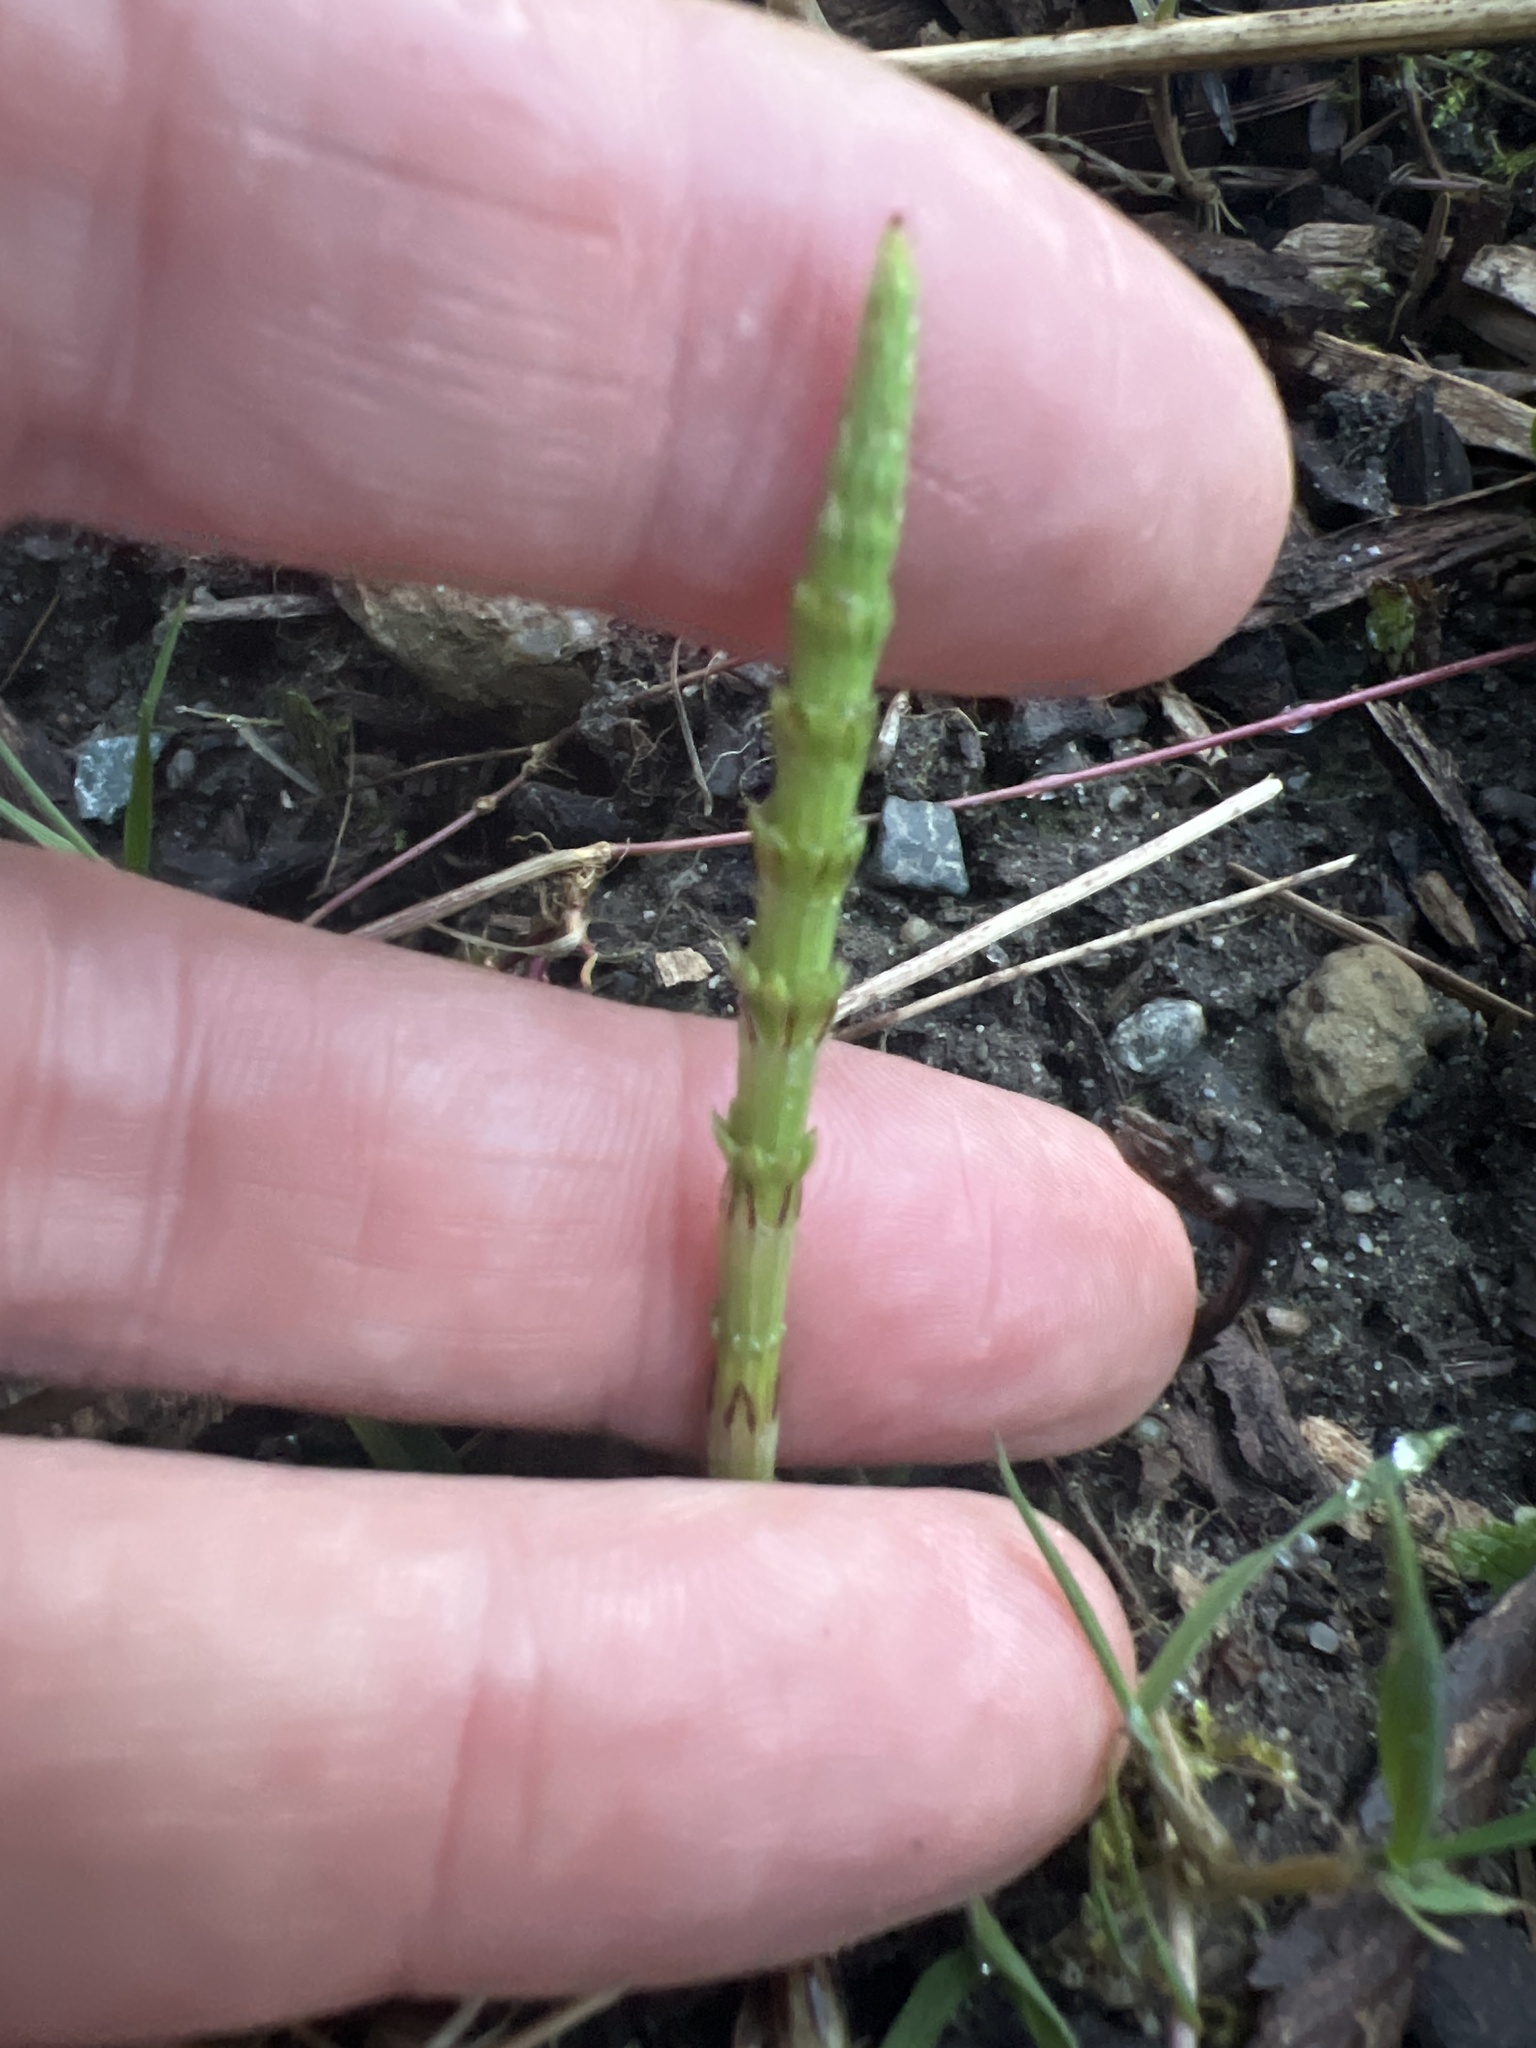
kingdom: Plantae
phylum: Tracheophyta
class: Polypodiopsida
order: Equisetales
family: Equisetaceae
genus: Equisetum
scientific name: Equisetum arvense
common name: Field horsetail
